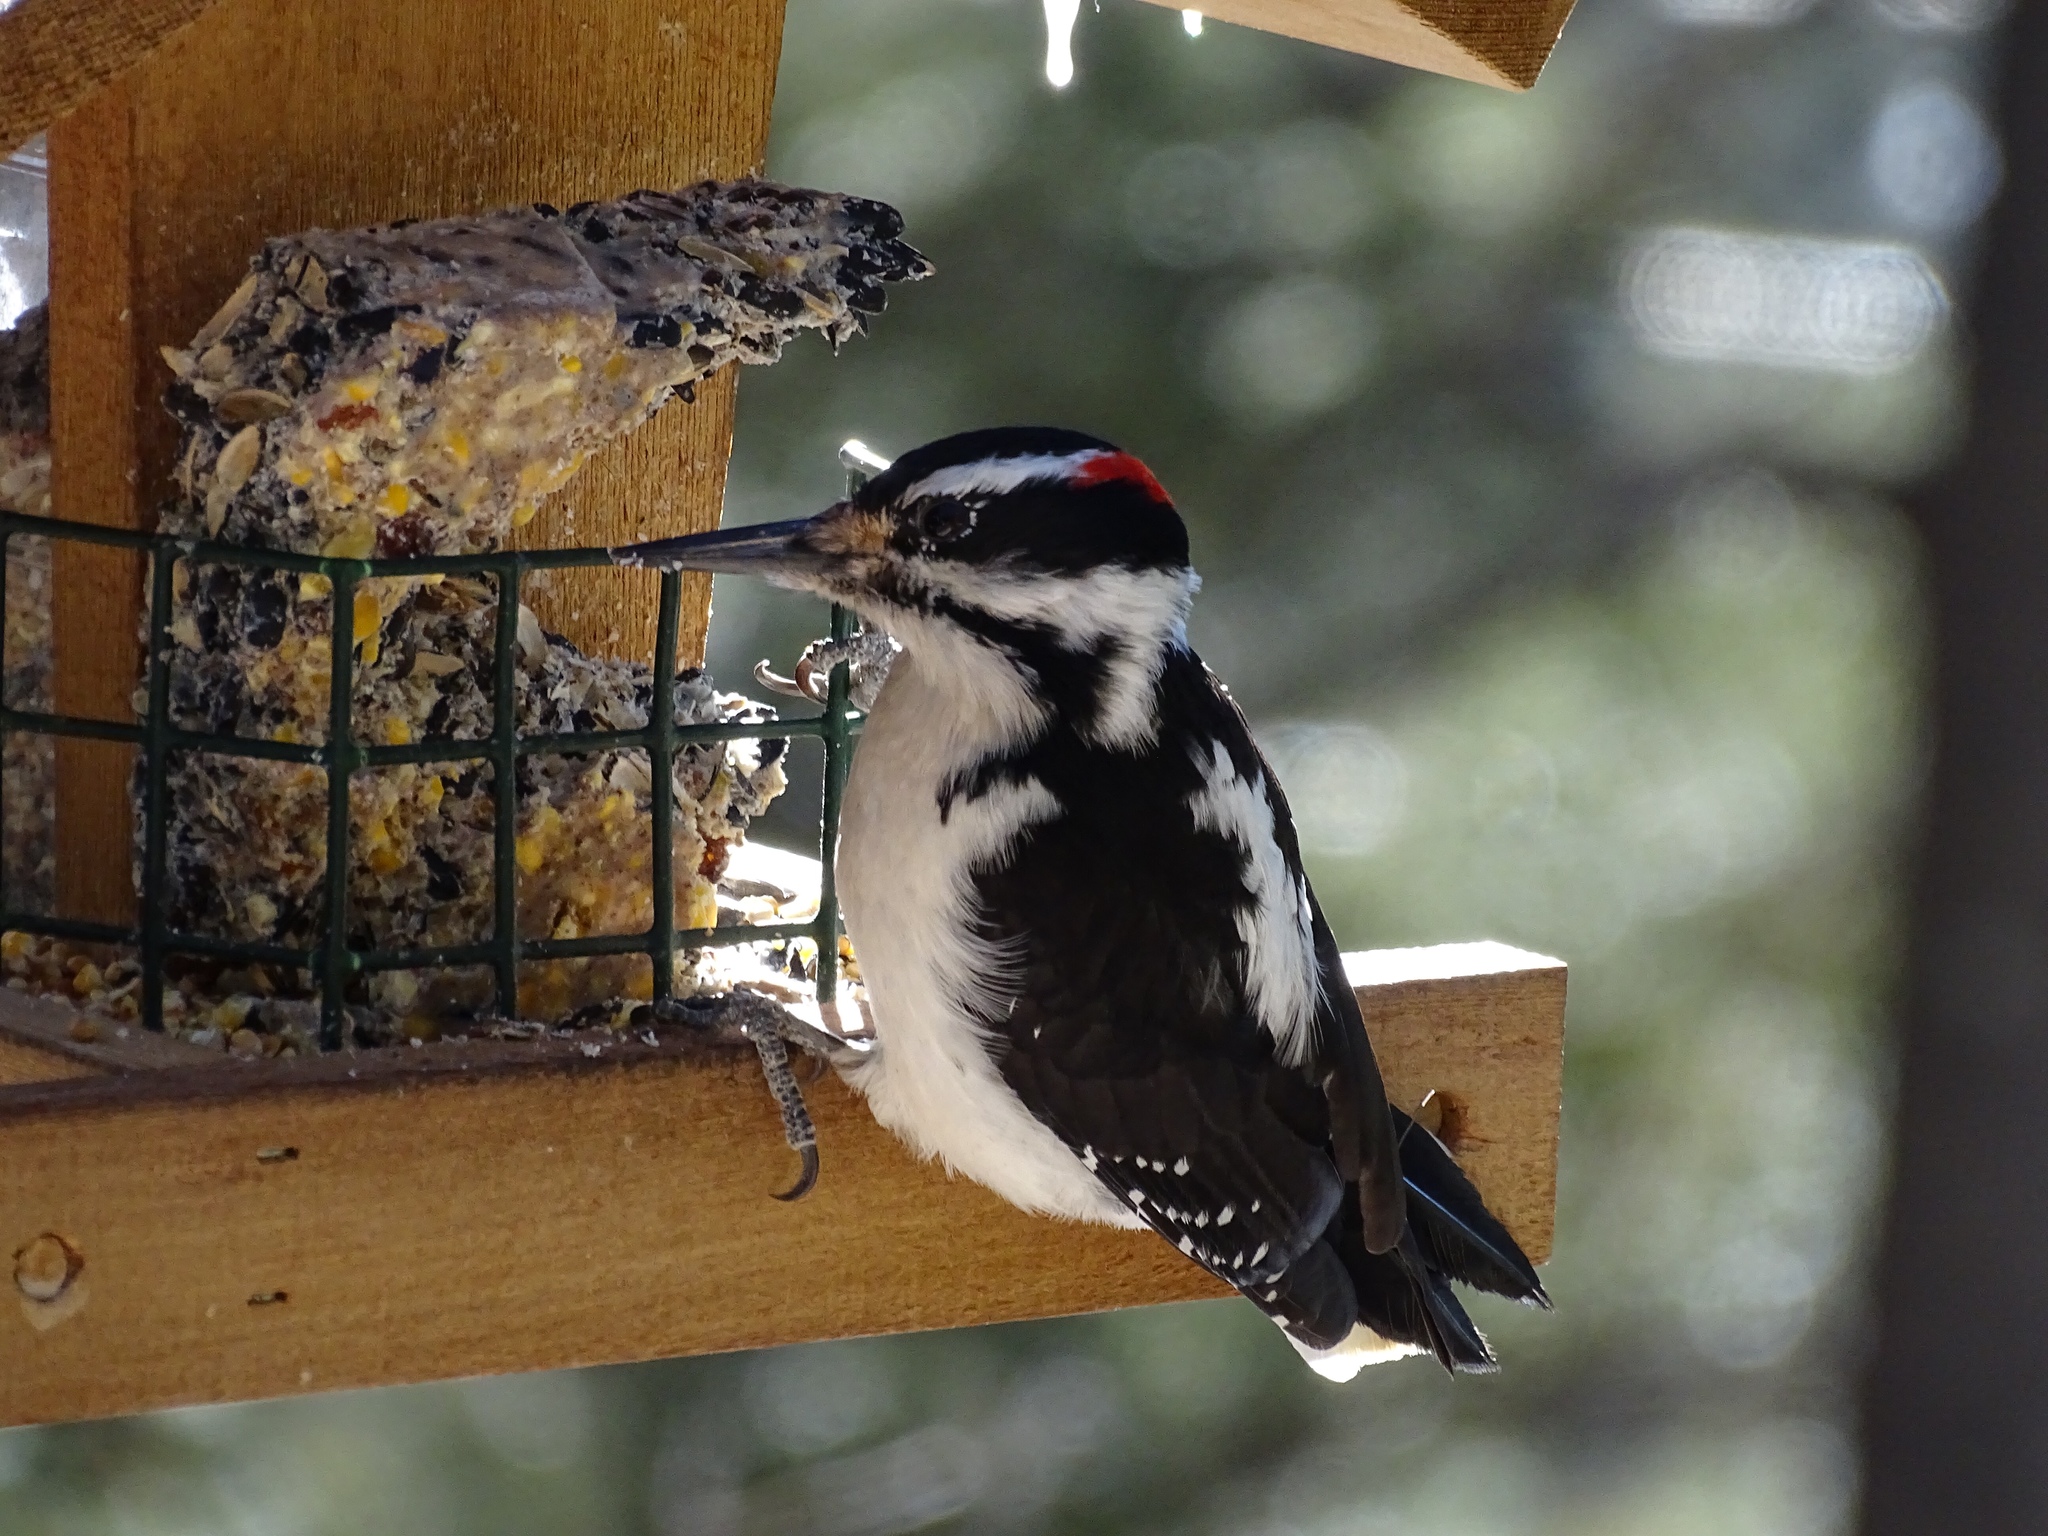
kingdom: Animalia
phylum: Chordata
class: Aves
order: Piciformes
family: Picidae
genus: Leuconotopicus
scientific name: Leuconotopicus villosus
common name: Hairy woodpecker
